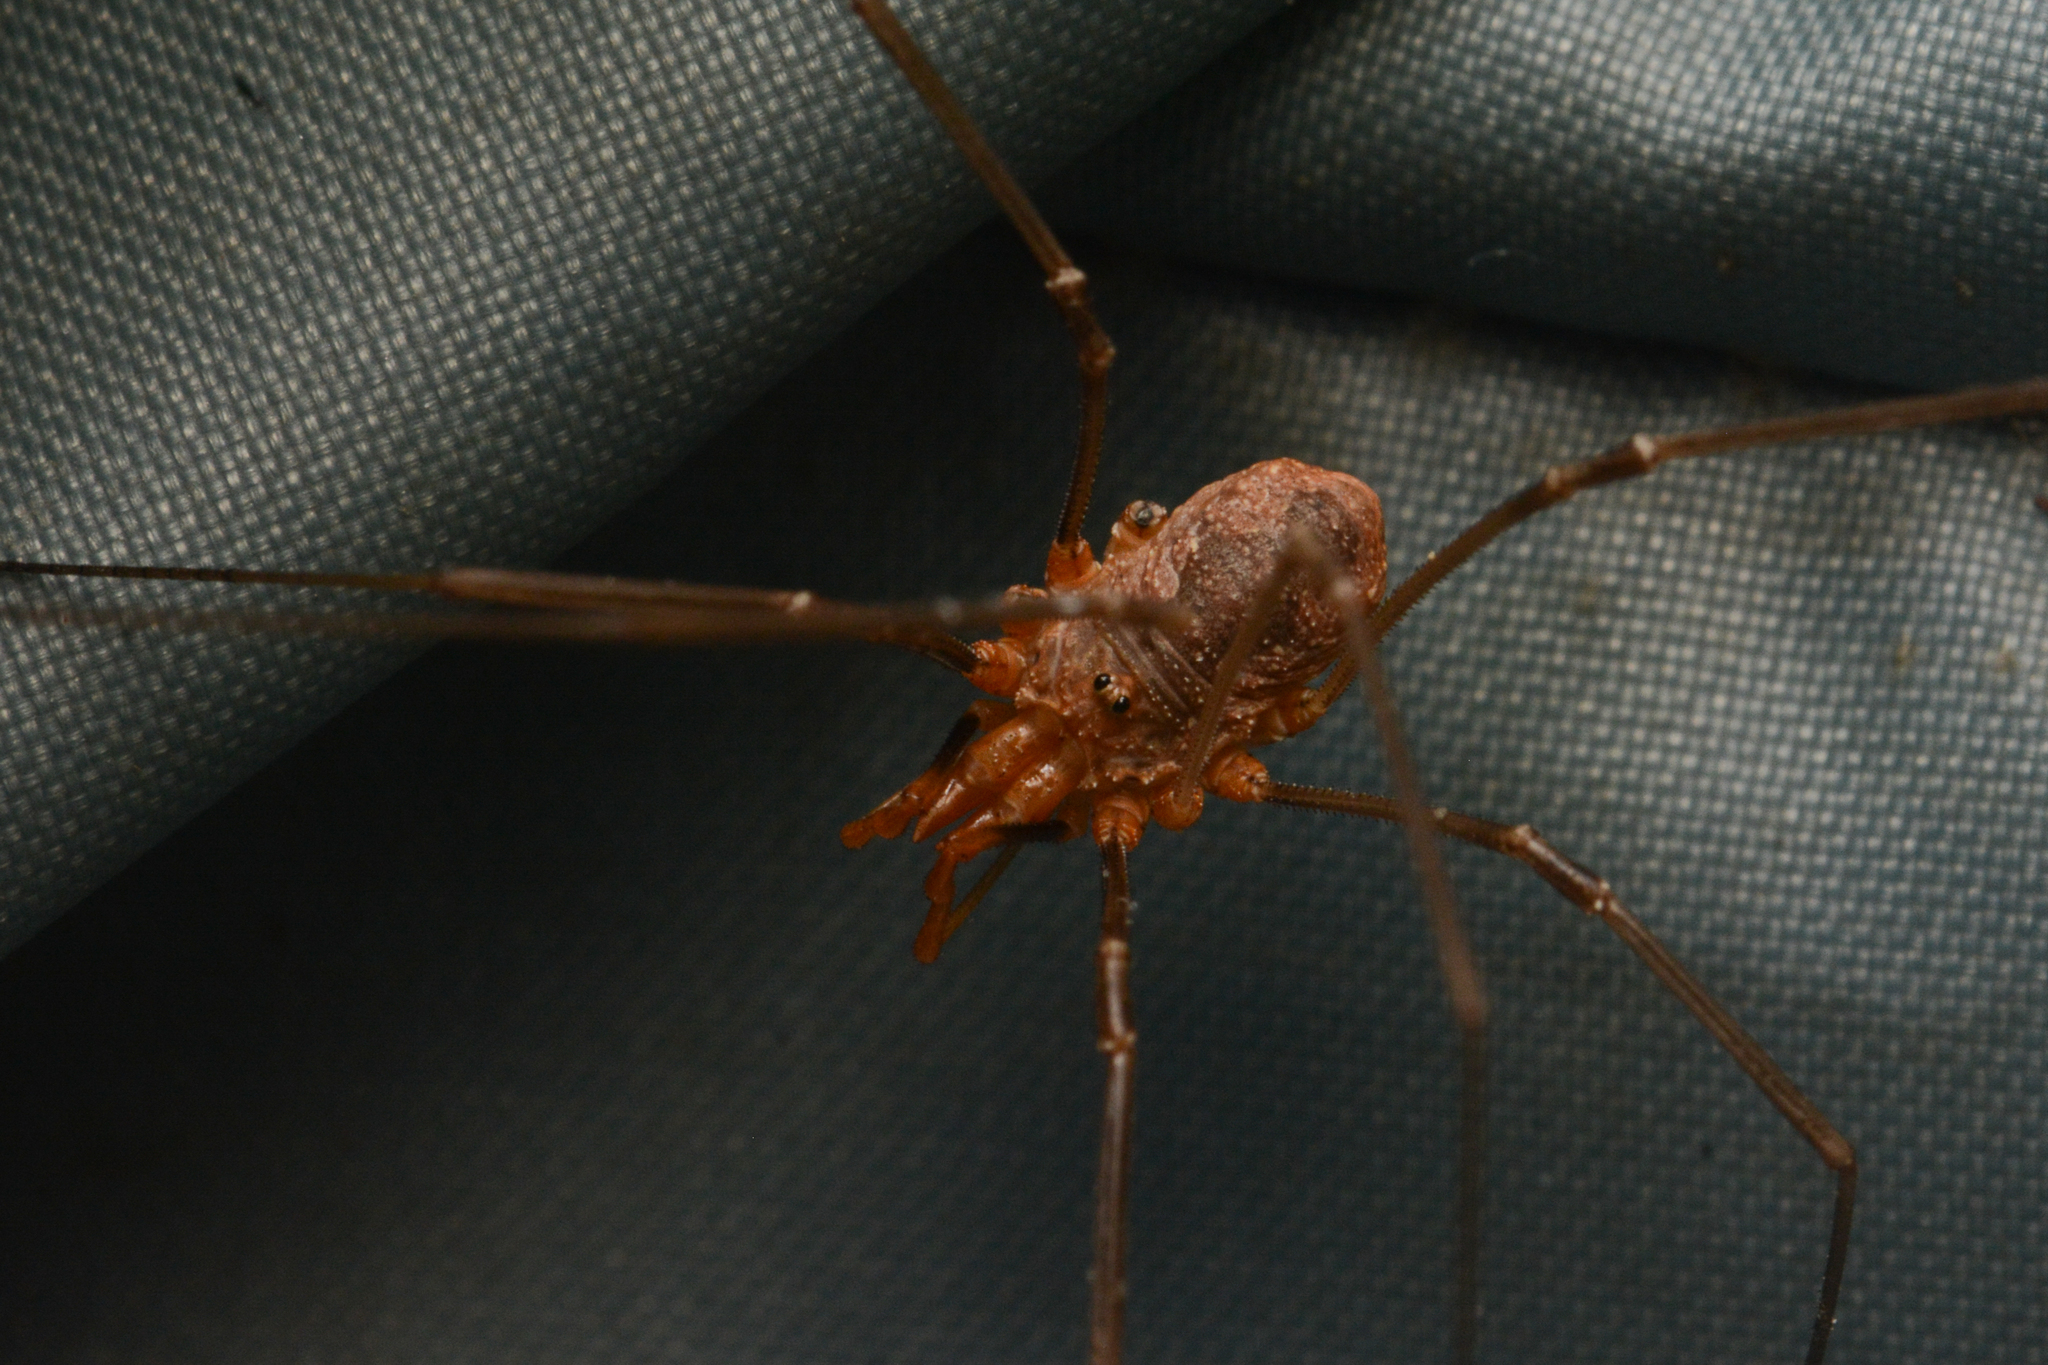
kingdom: Animalia
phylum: Arthropoda
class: Arachnida
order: Opiliones
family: Phalangiidae
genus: Phalangium
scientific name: Phalangium opilio
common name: Daddy longleg
